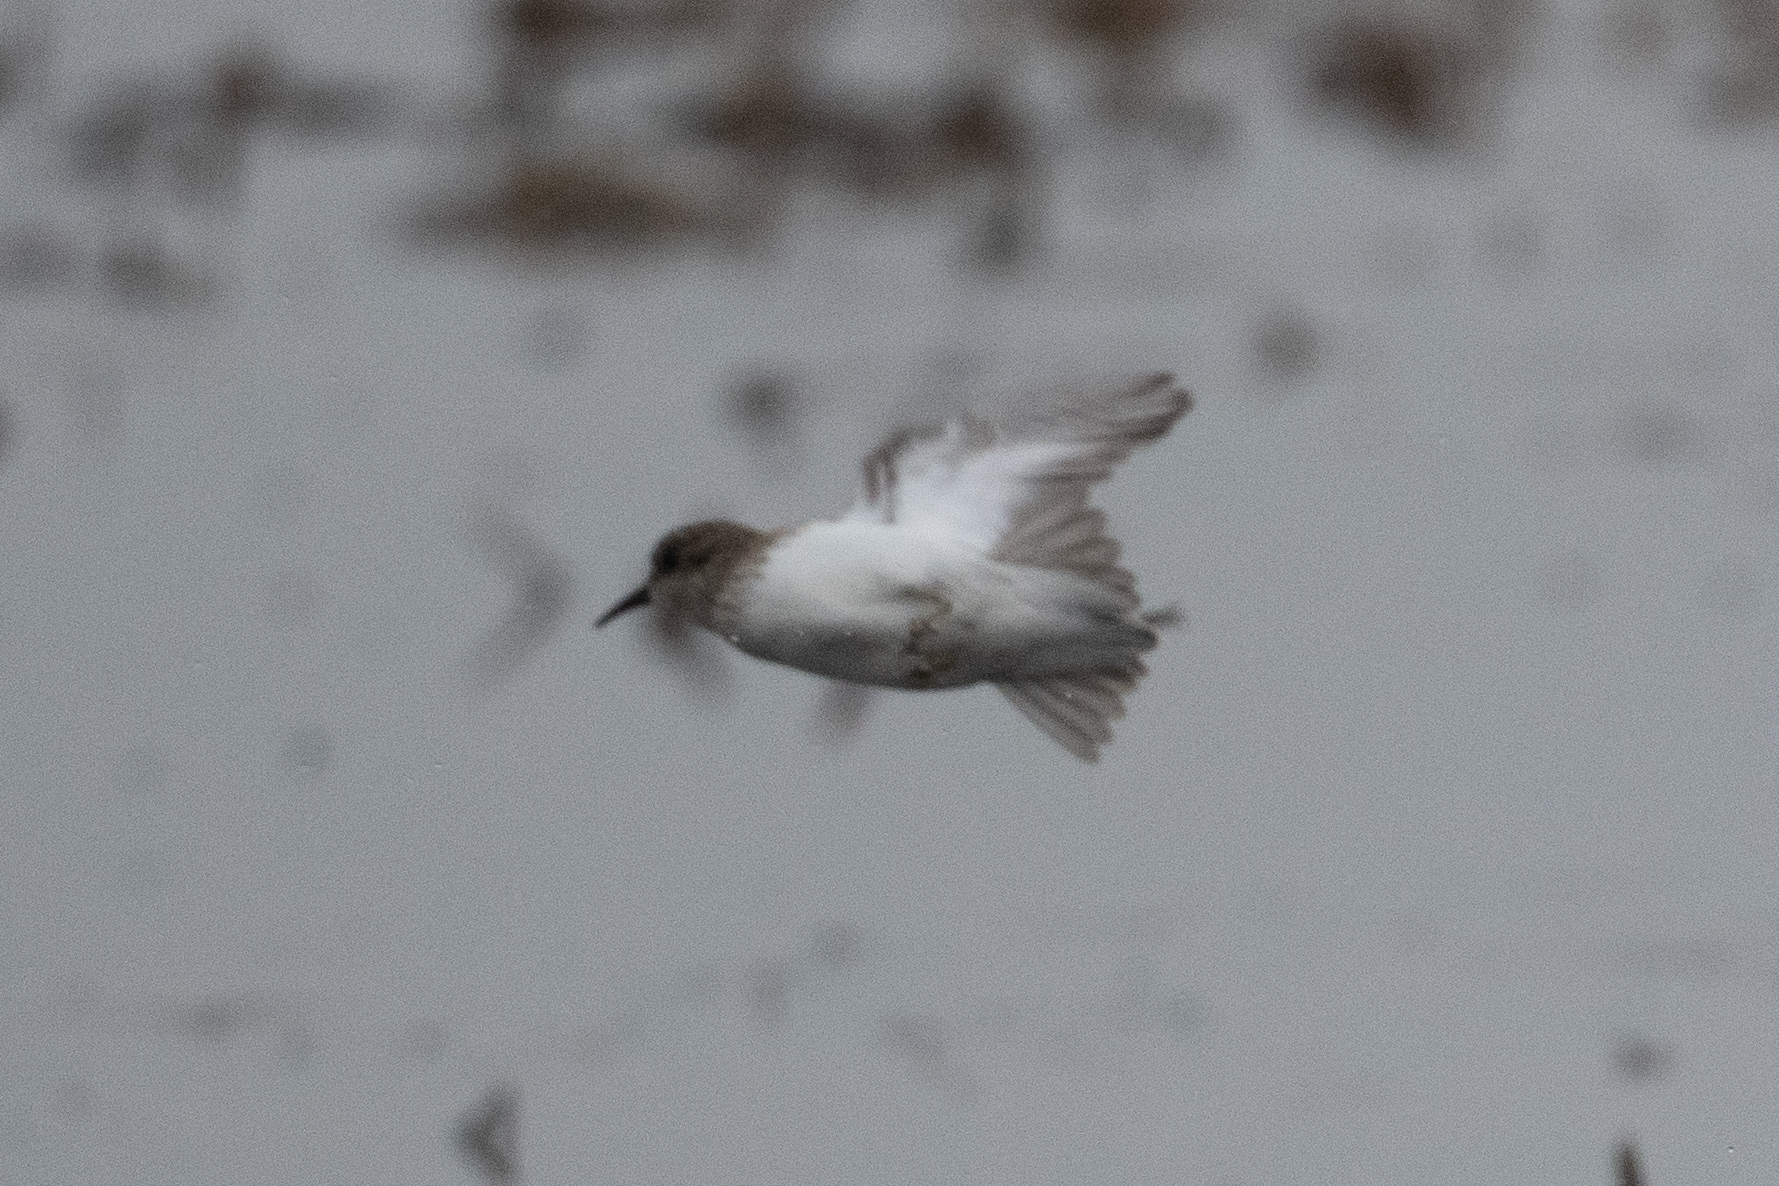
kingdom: Animalia
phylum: Chordata
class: Aves
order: Charadriiformes
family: Scolopacidae
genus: Calidris
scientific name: Calidris minutilla
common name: Least sandpiper
